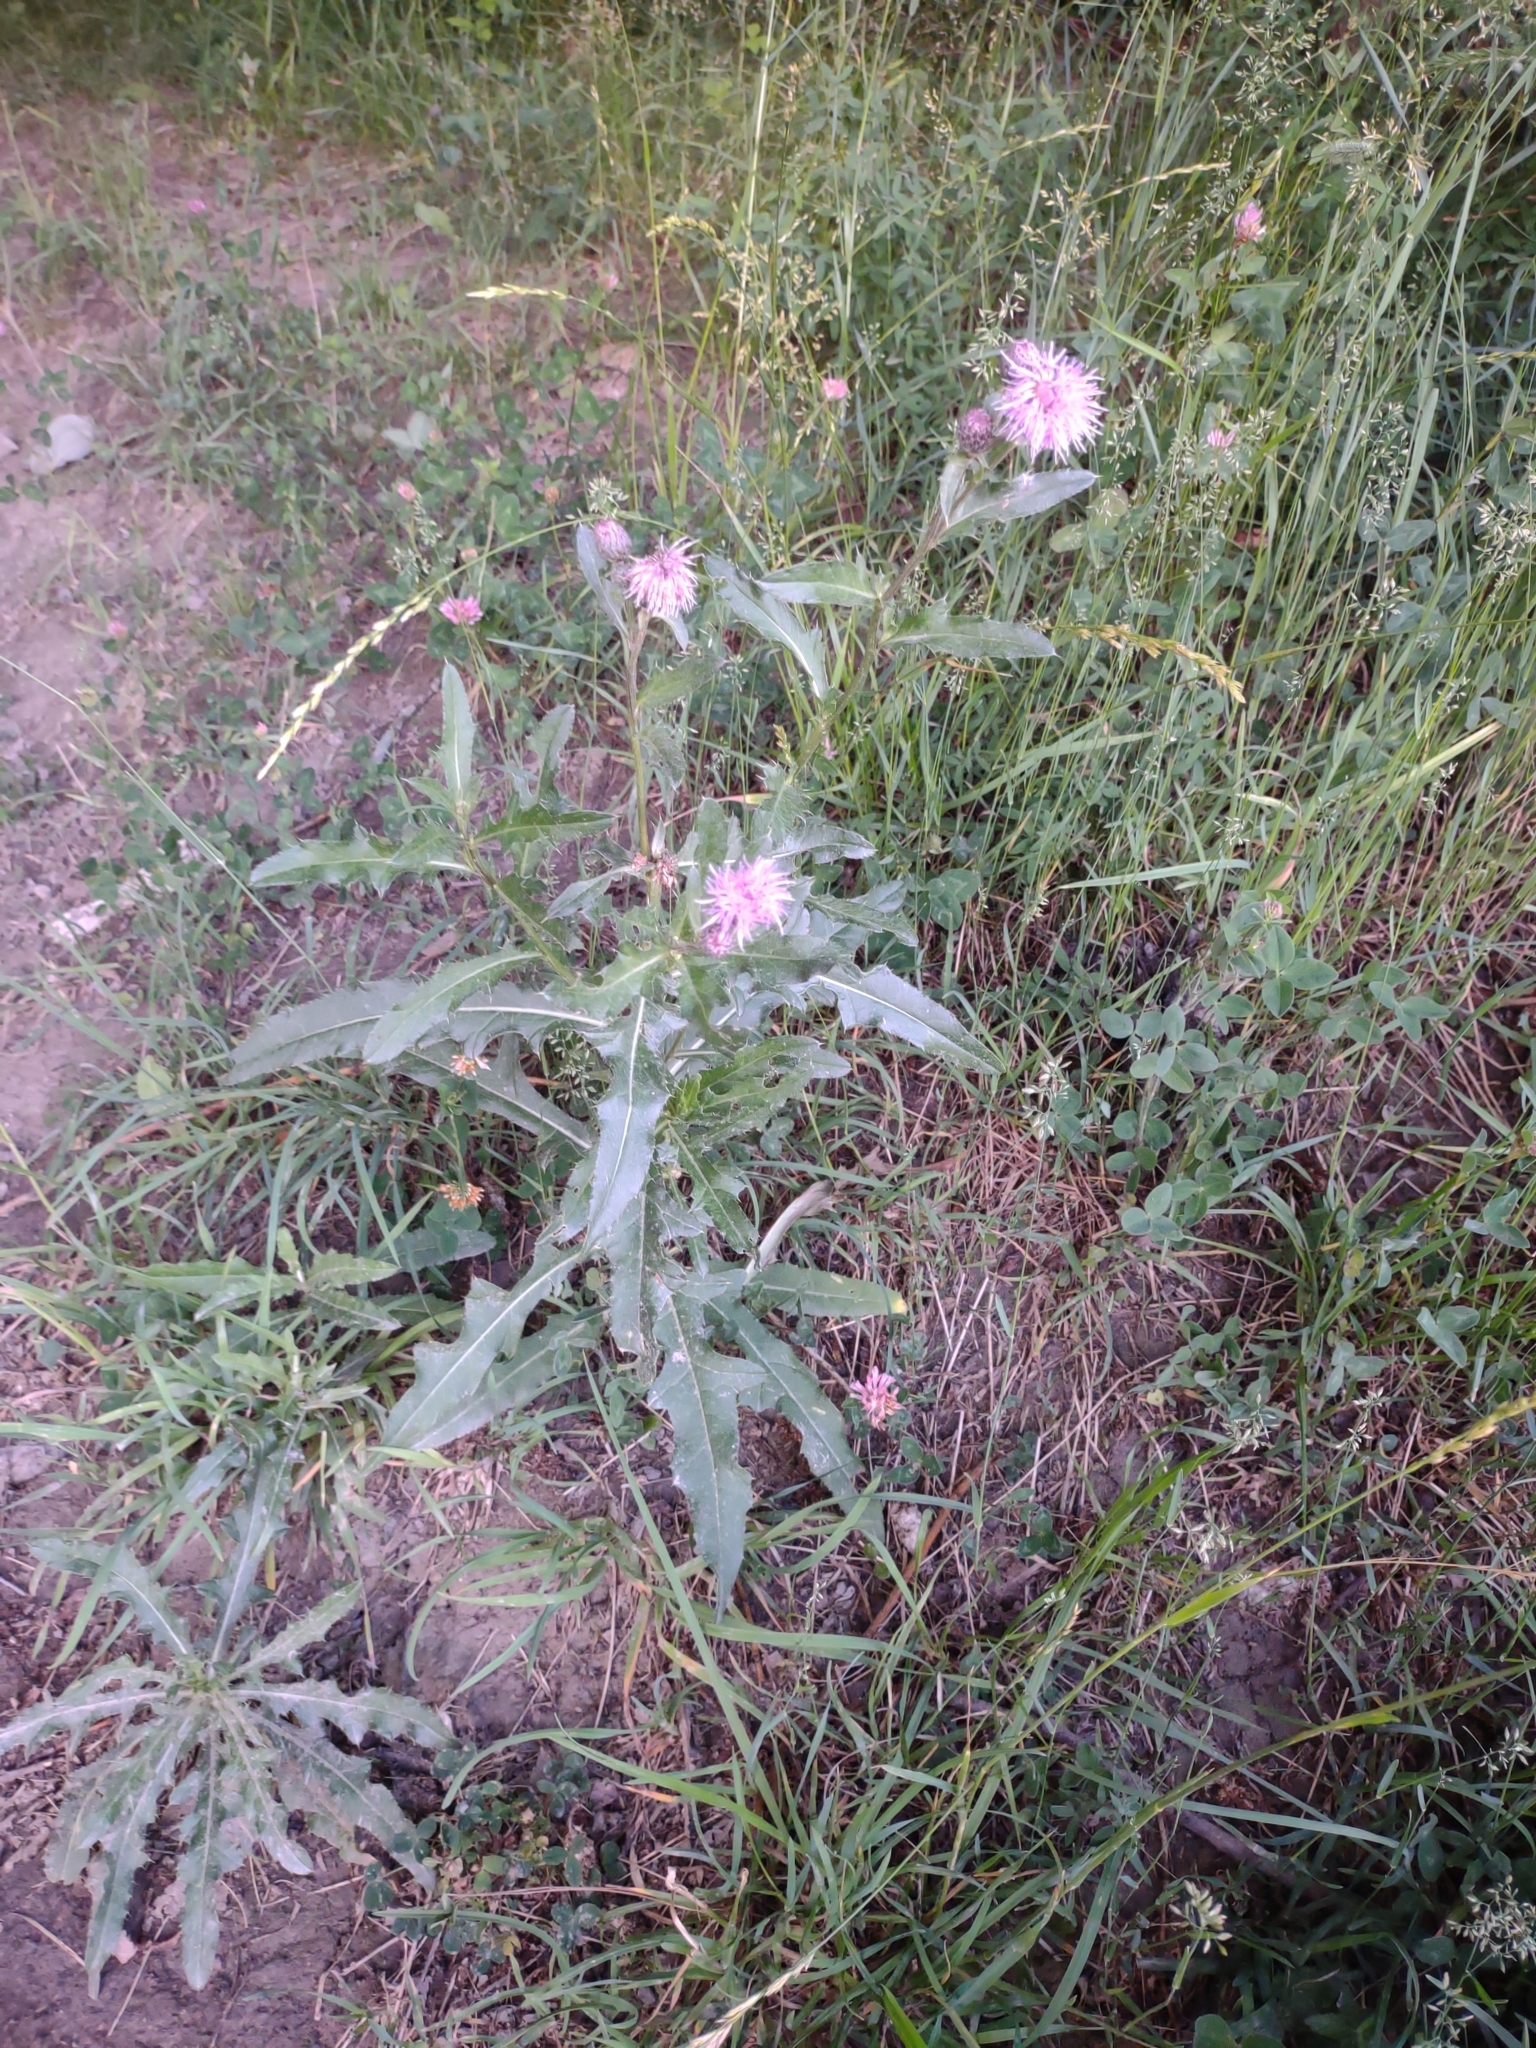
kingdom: Plantae
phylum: Tracheophyta
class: Magnoliopsida
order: Asterales
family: Asteraceae
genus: Cirsium
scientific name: Cirsium arvense
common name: Creeping thistle
